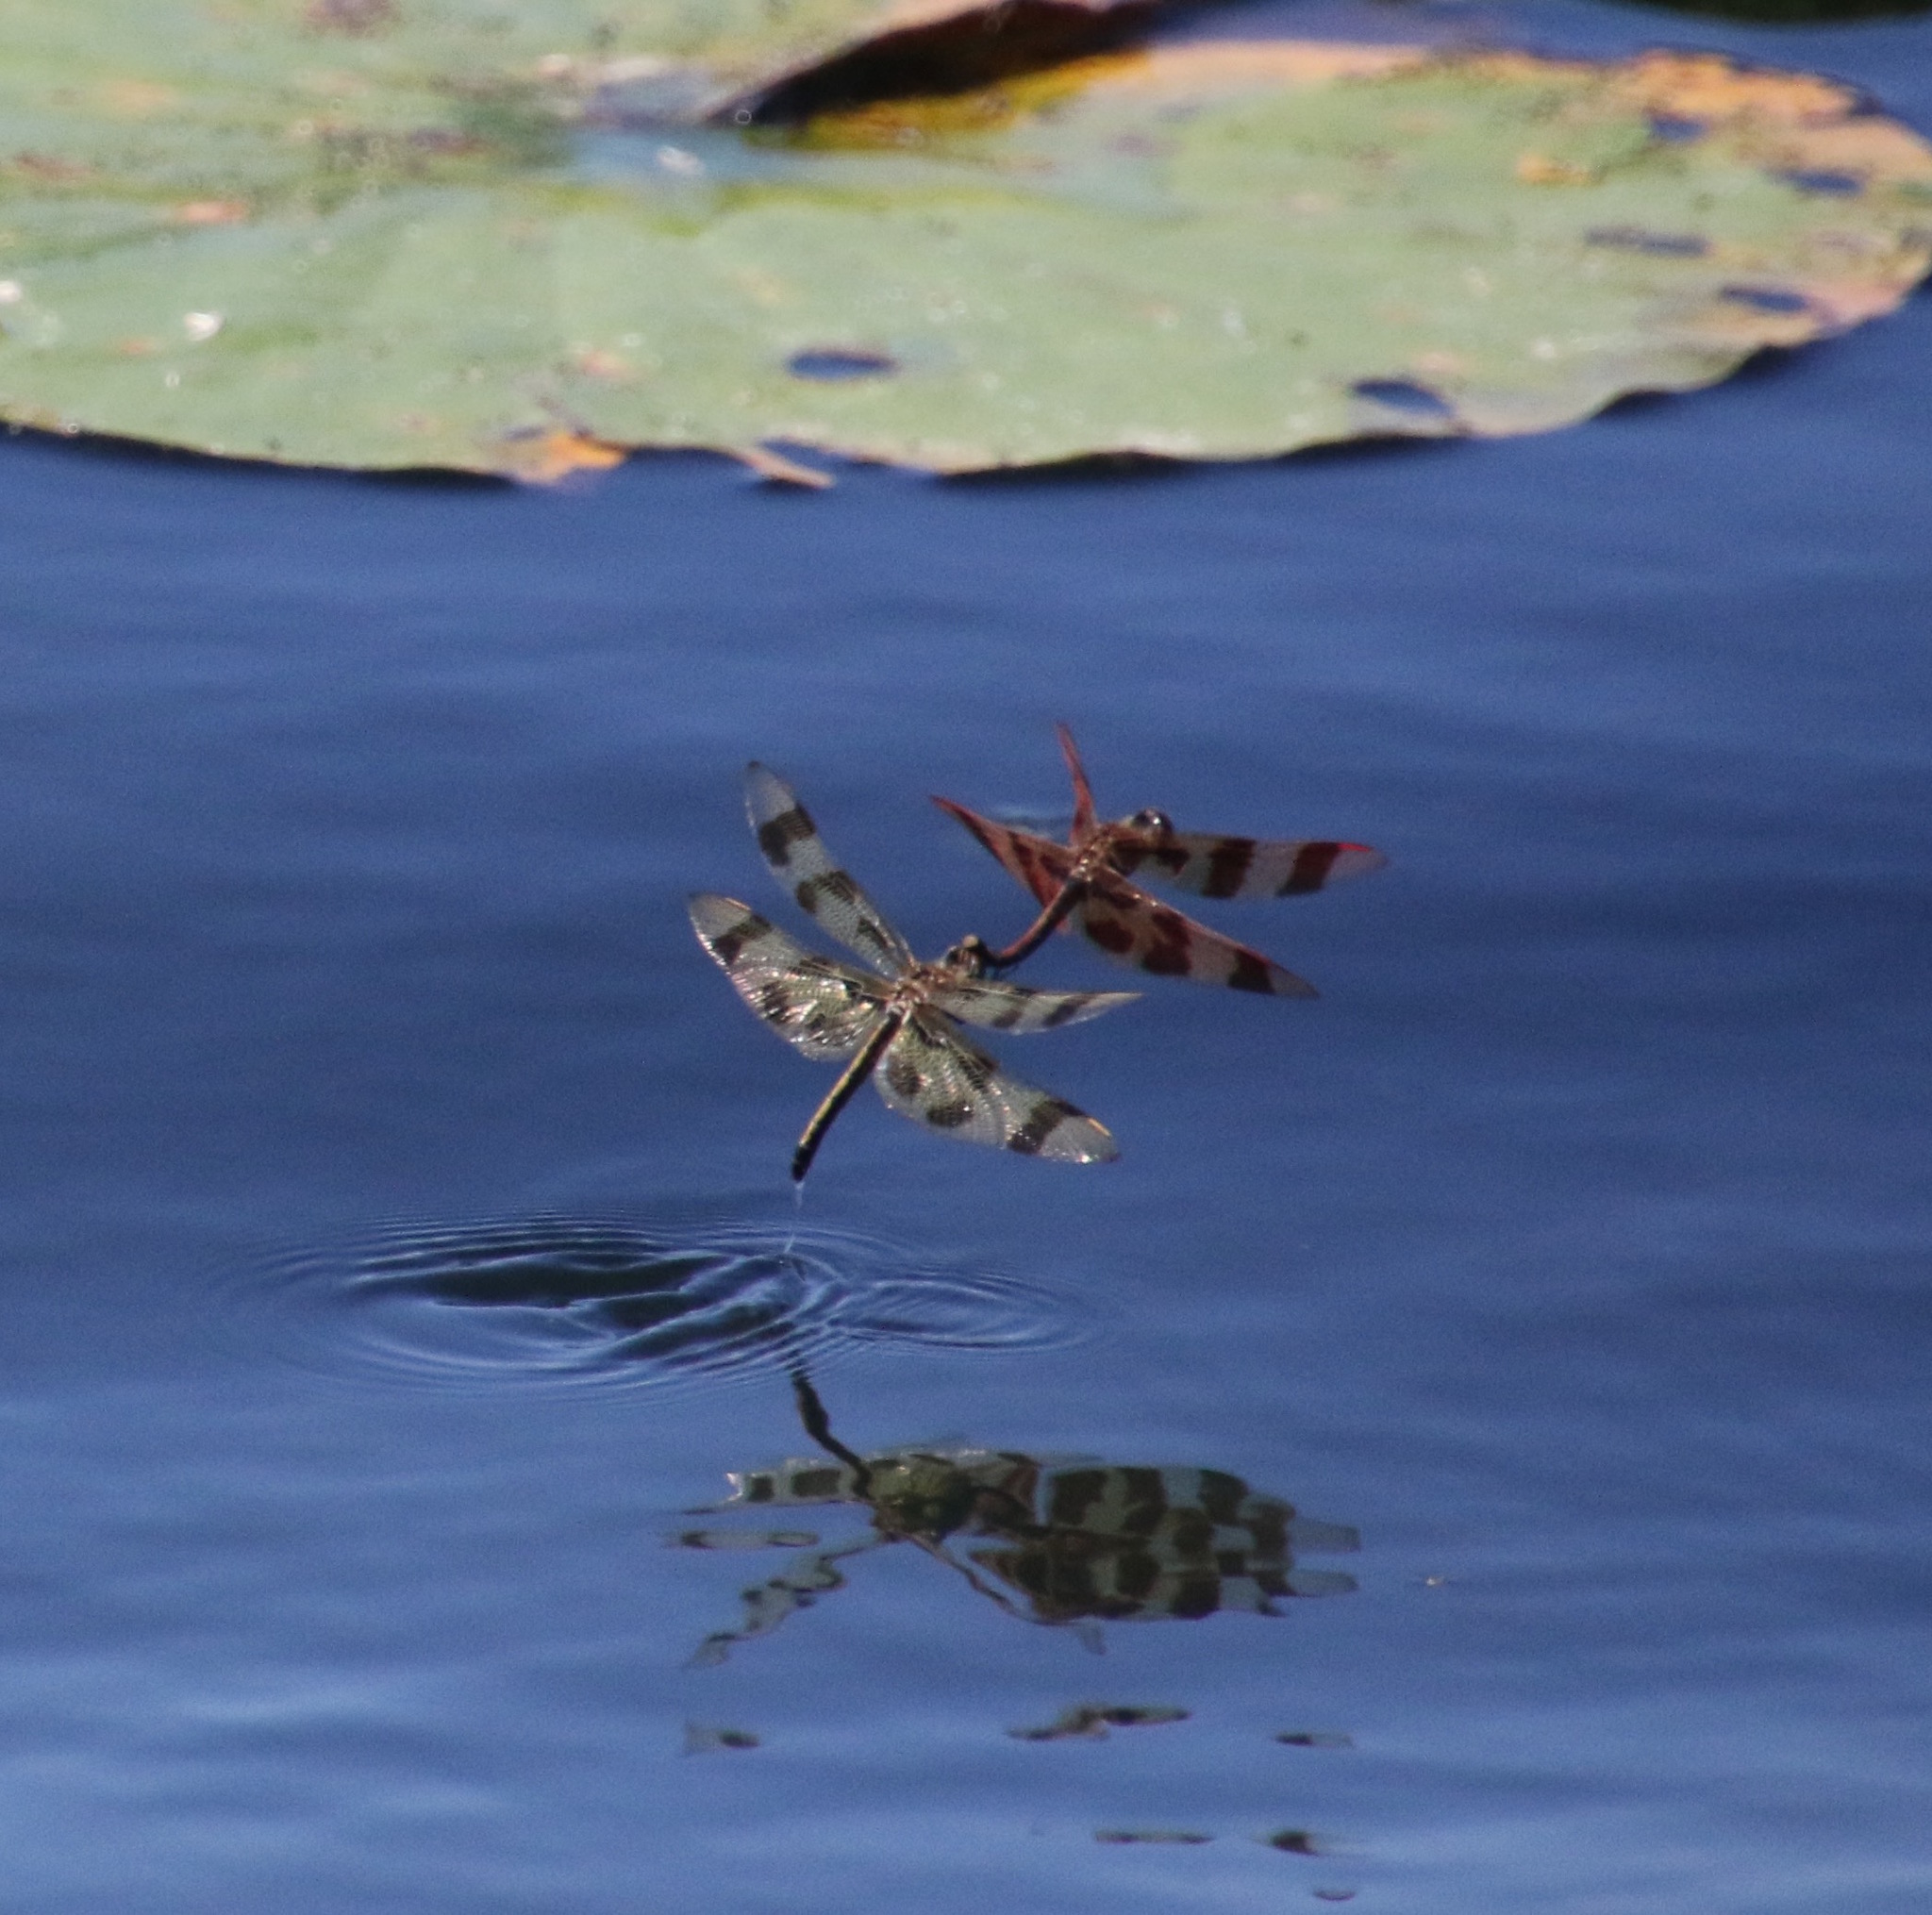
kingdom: Animalia
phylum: Arthropoda
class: Insecta
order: Odonata
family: Libellulidae
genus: Celithemis
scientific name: Celithemis eponina
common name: Halloween pennant
